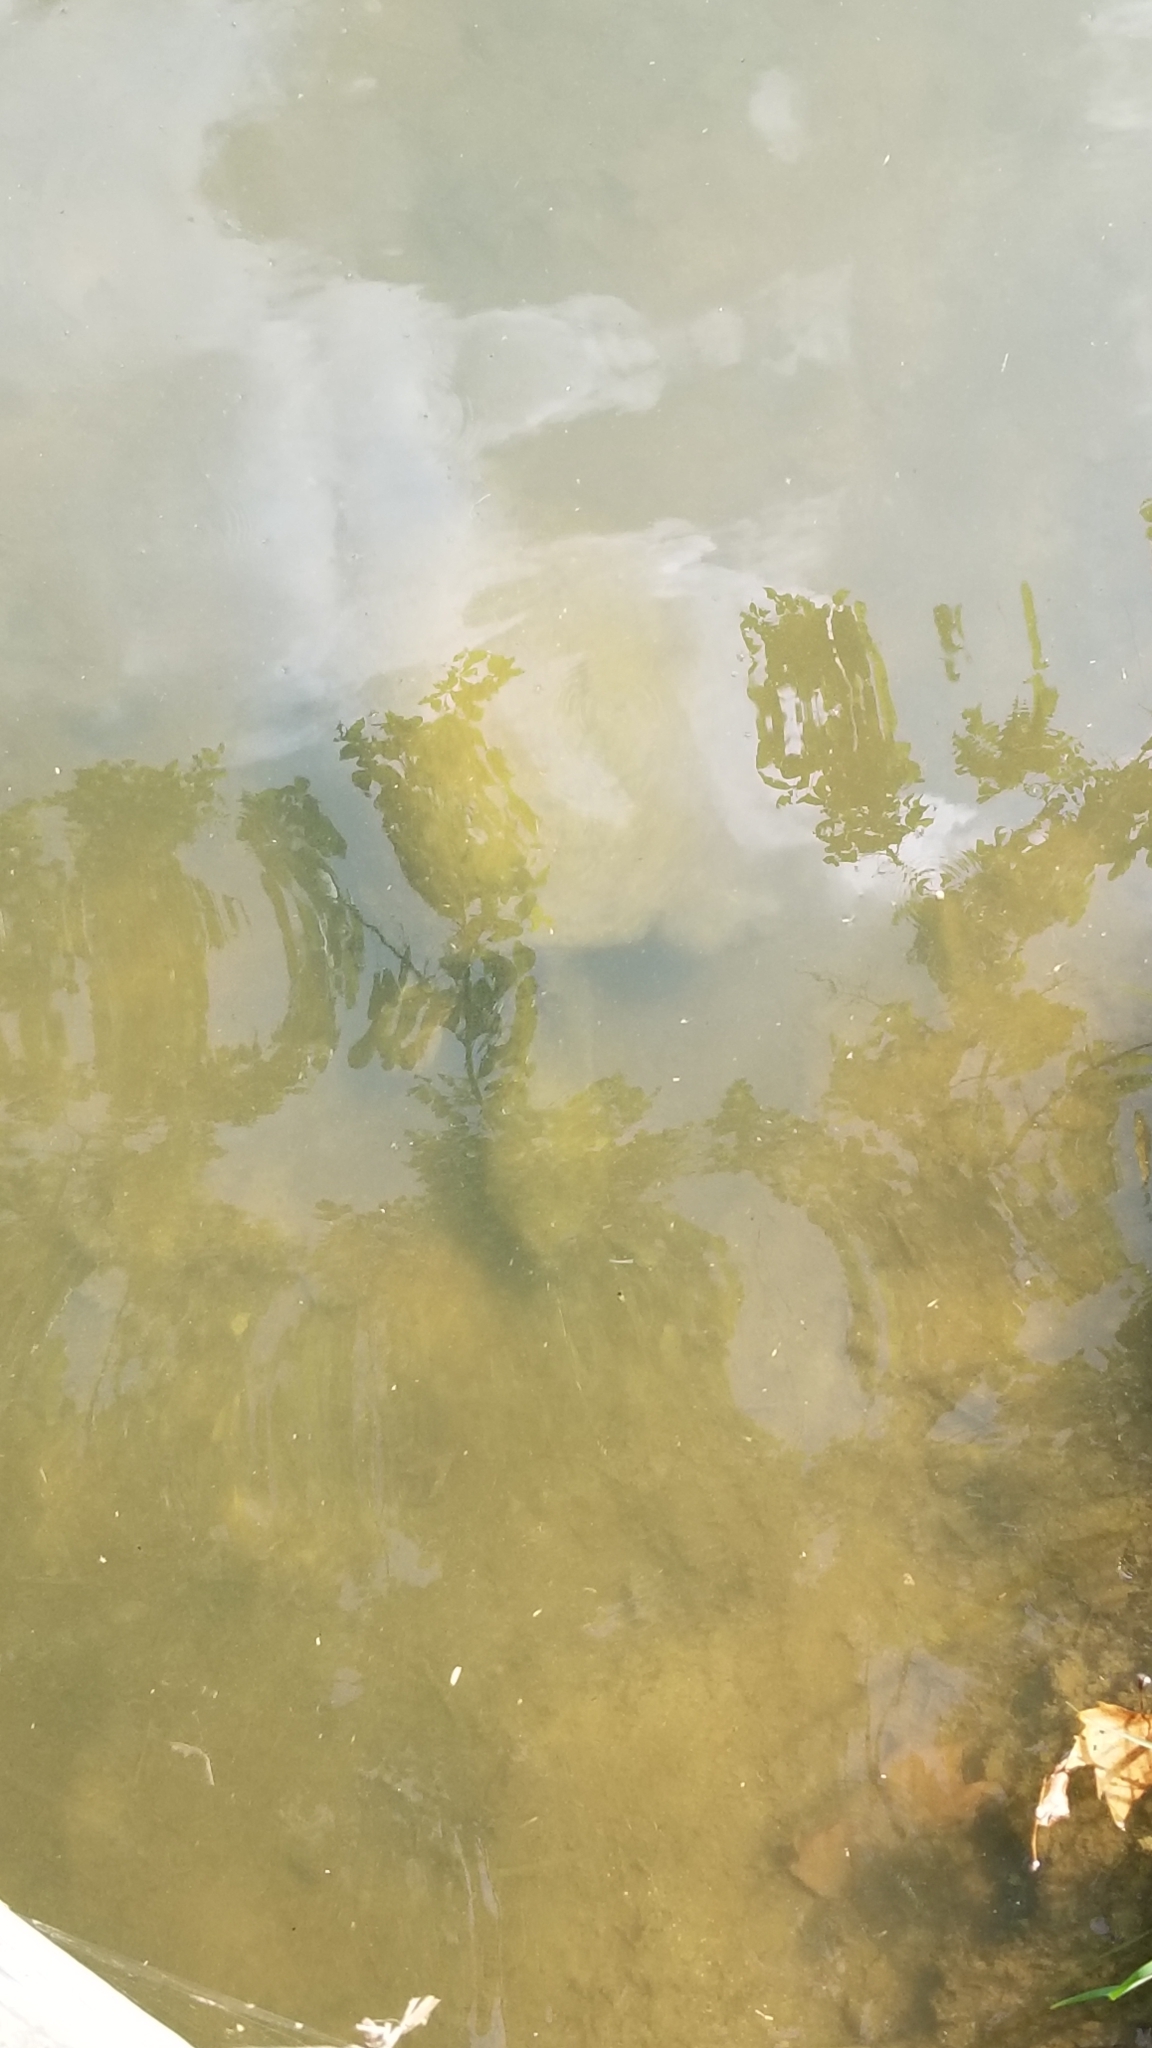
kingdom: Animalia
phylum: Chordata
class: Testudines
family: Chelydridae
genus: Chelydra
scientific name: Chelydra serpentina
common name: Common snapping turtle
